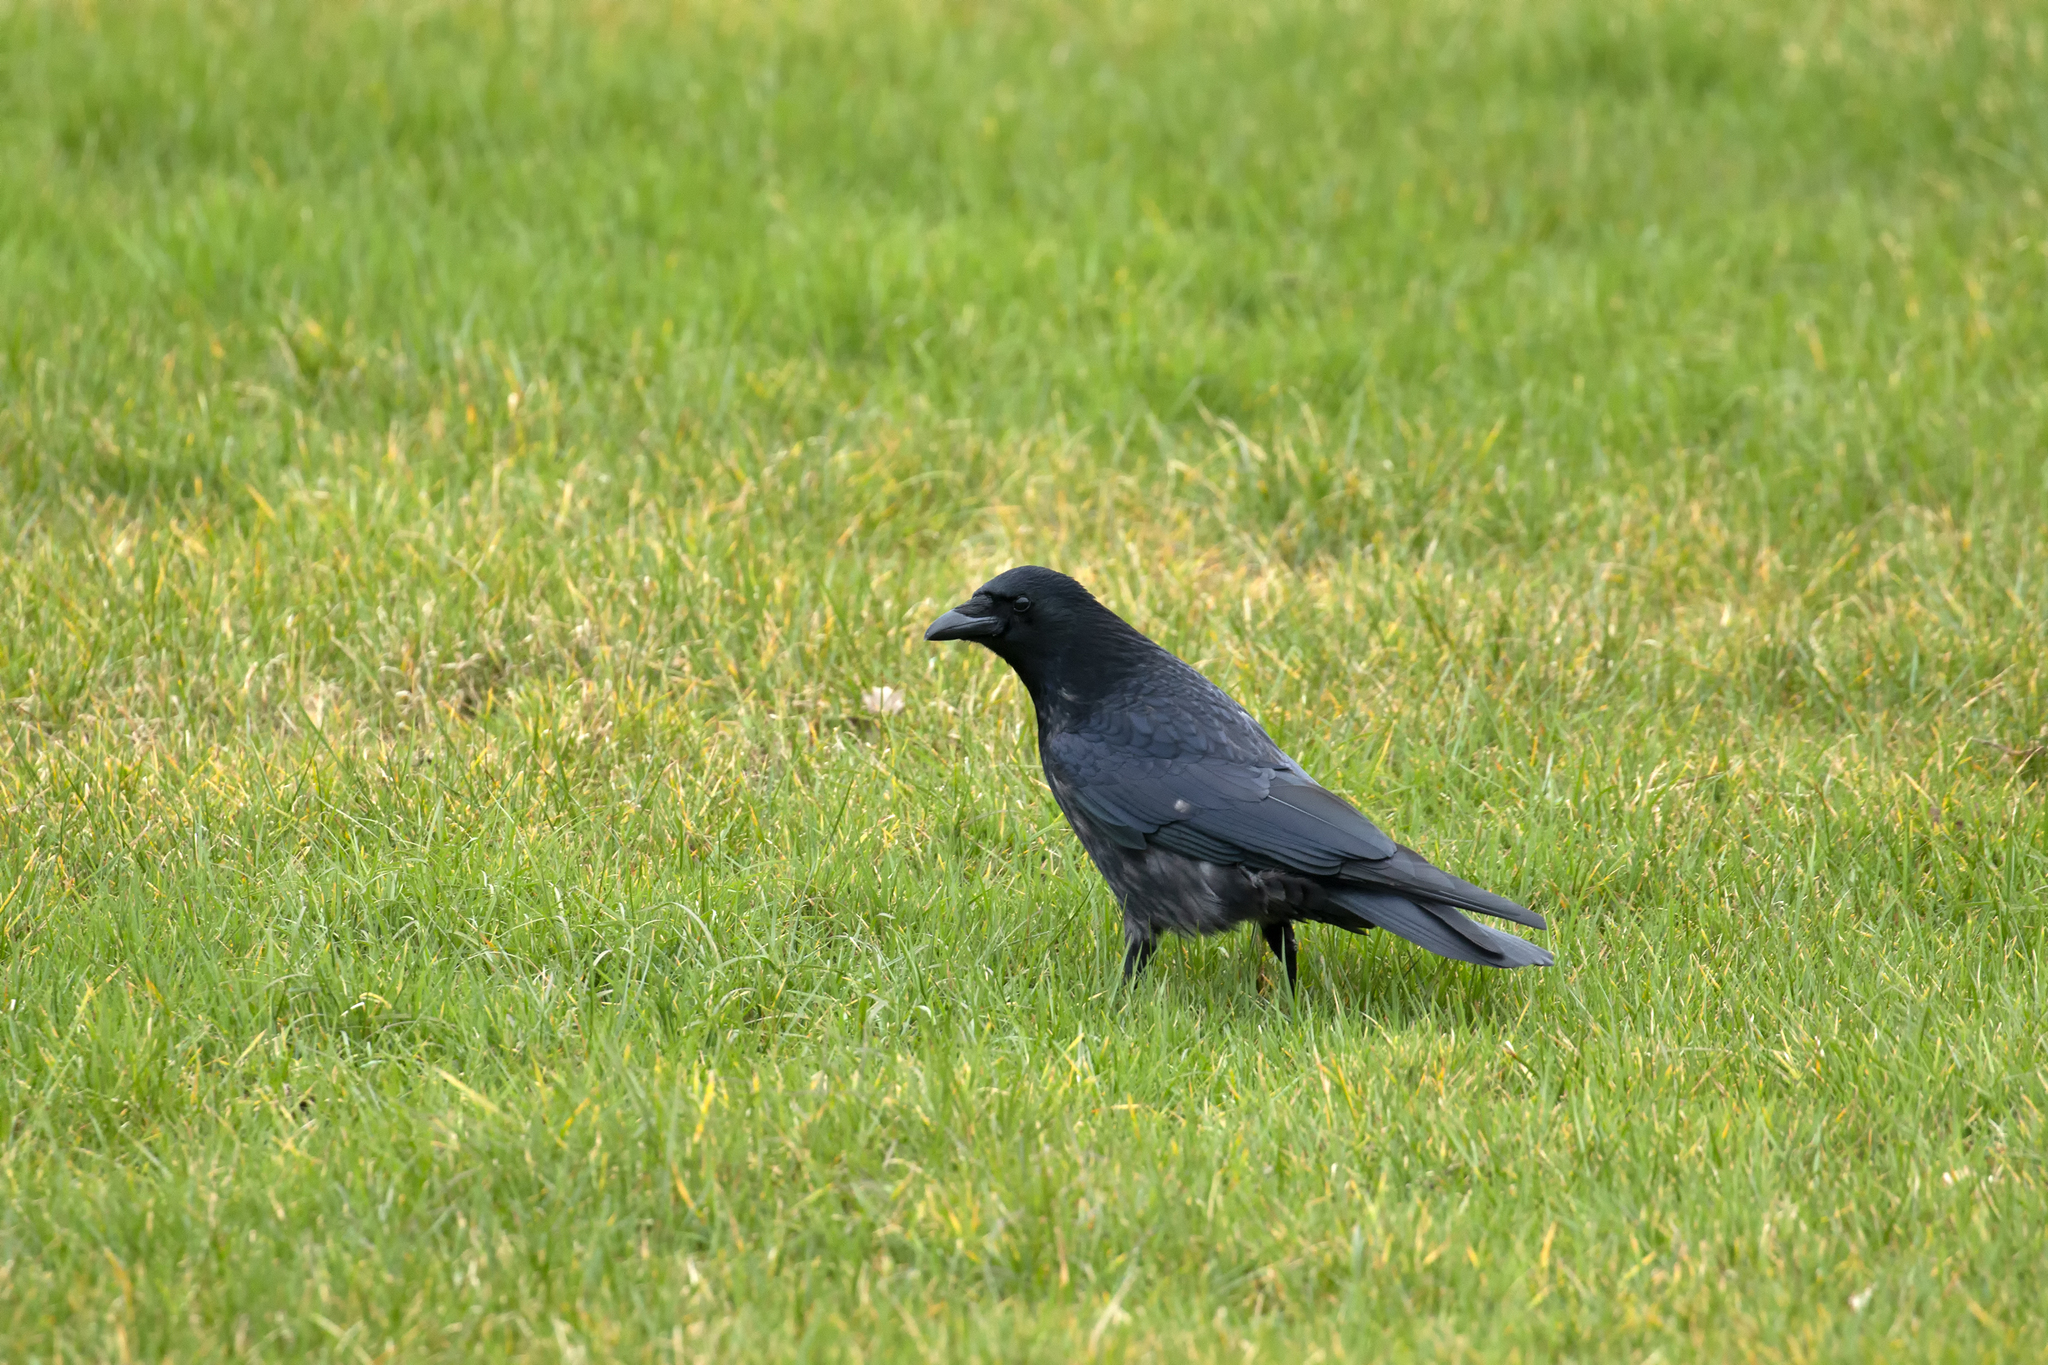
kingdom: Animalia
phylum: Chordata
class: Aves
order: Passeriformes
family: Corvidae
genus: Corvus
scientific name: Corvus corone
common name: Carrion crow
